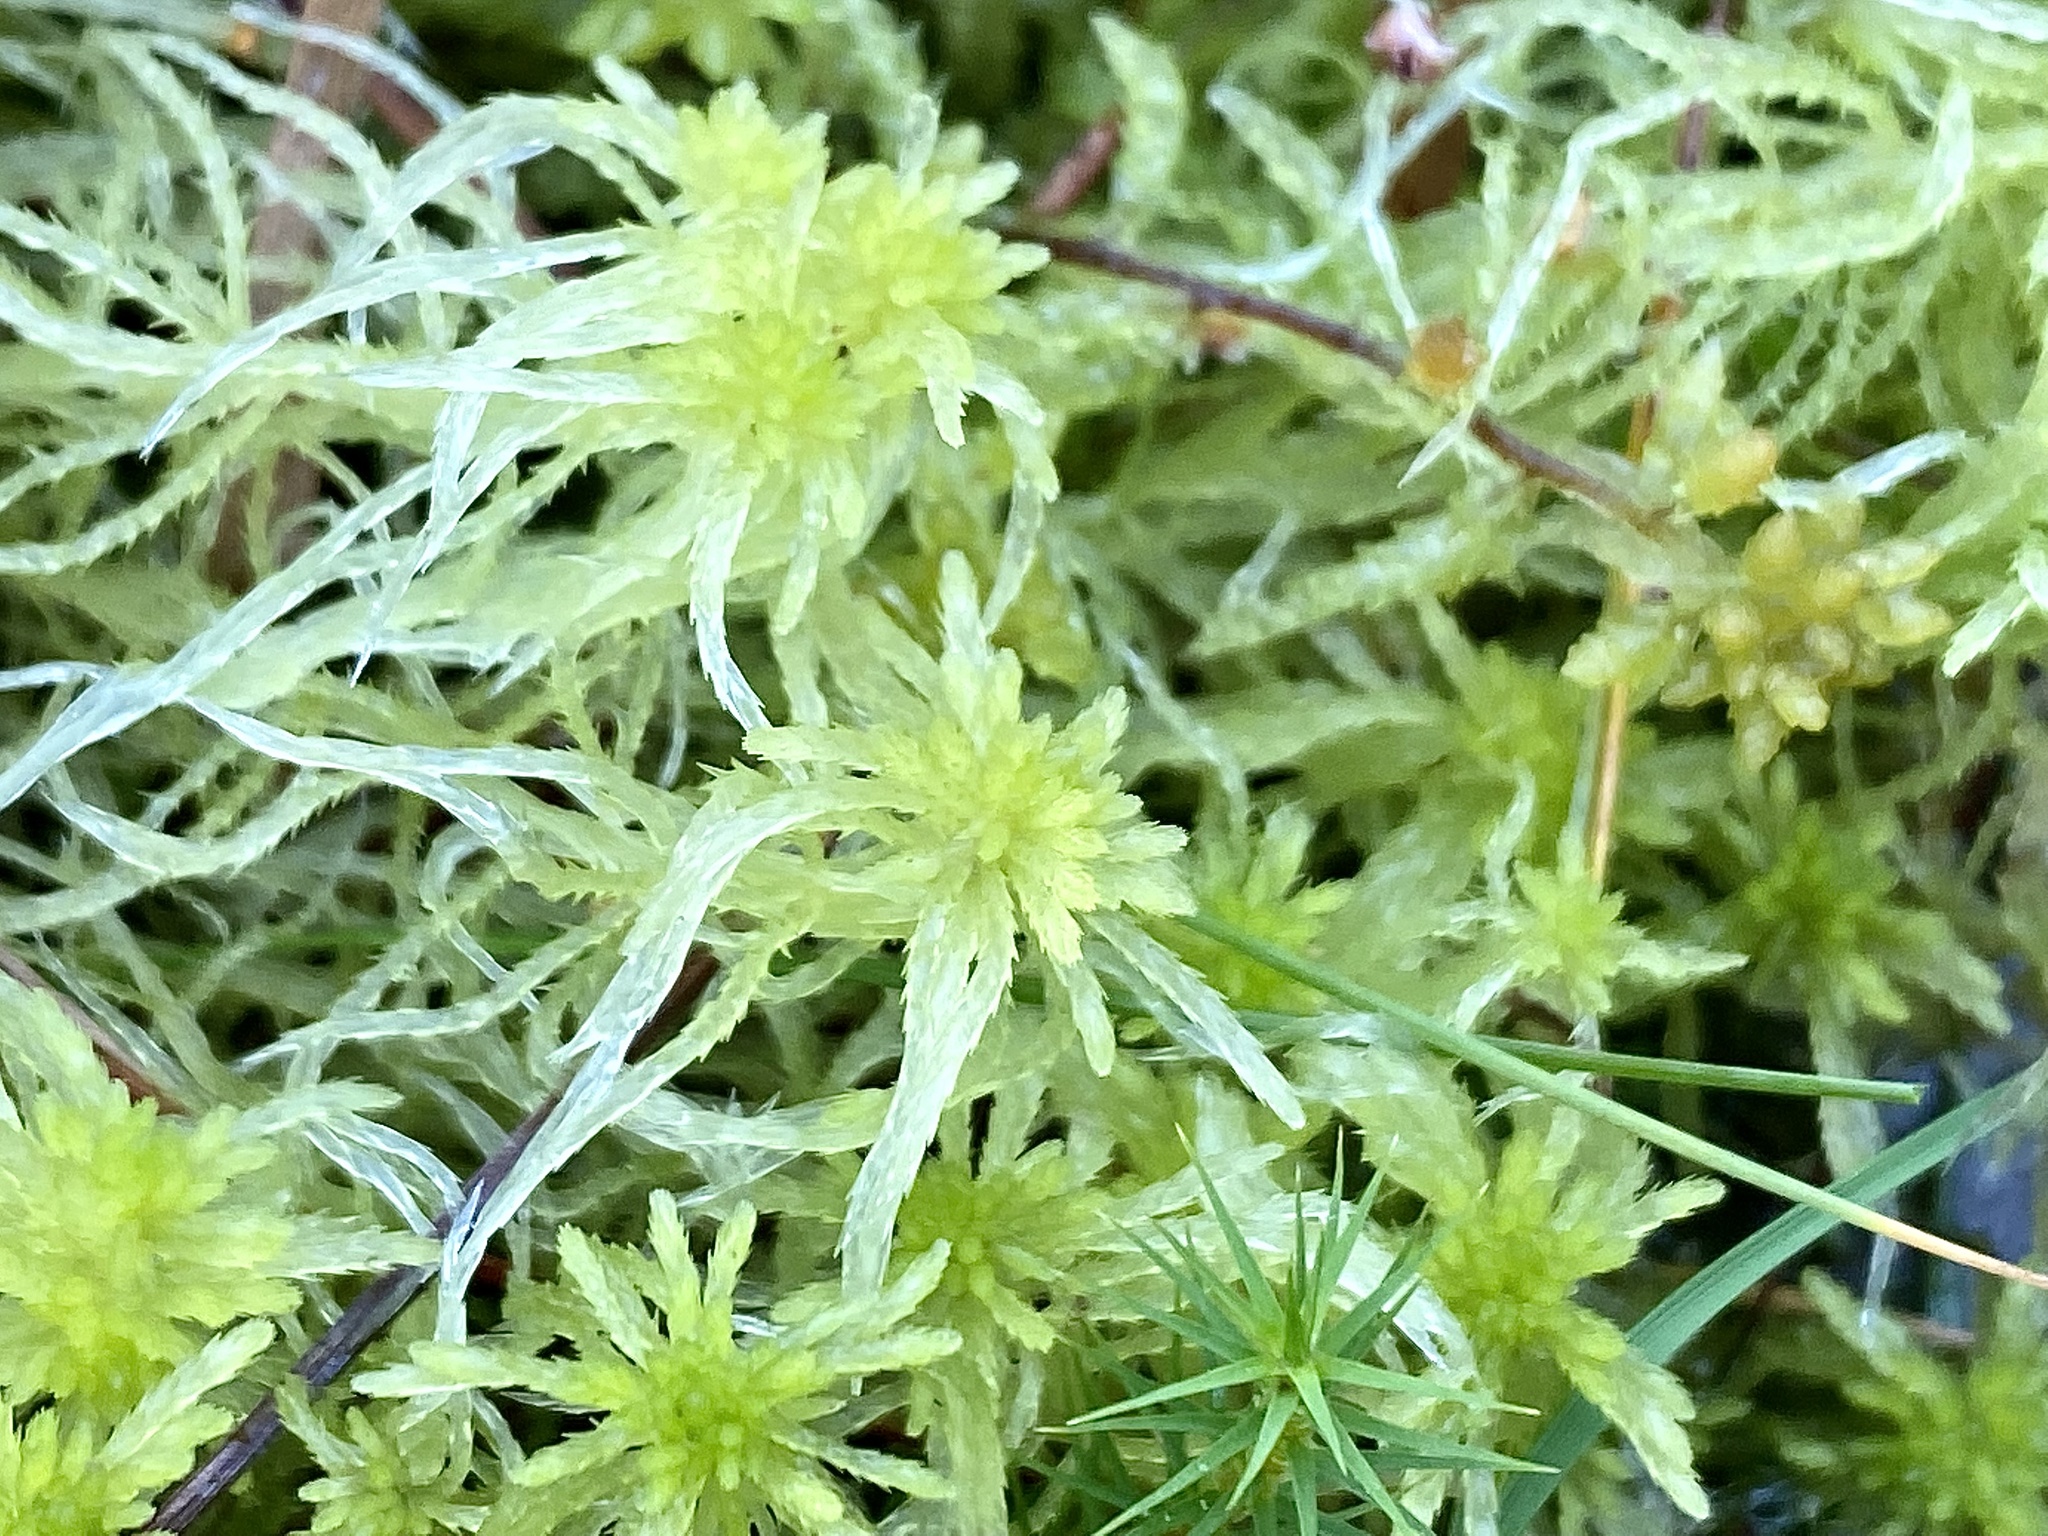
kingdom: Plantae
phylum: Bryophyta
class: Sphagnopsida
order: Sphagnales
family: Sphagnaceae
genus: Sphagnum
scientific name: Sphagnum girgensohnii
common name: Girgensohn's peat moss
